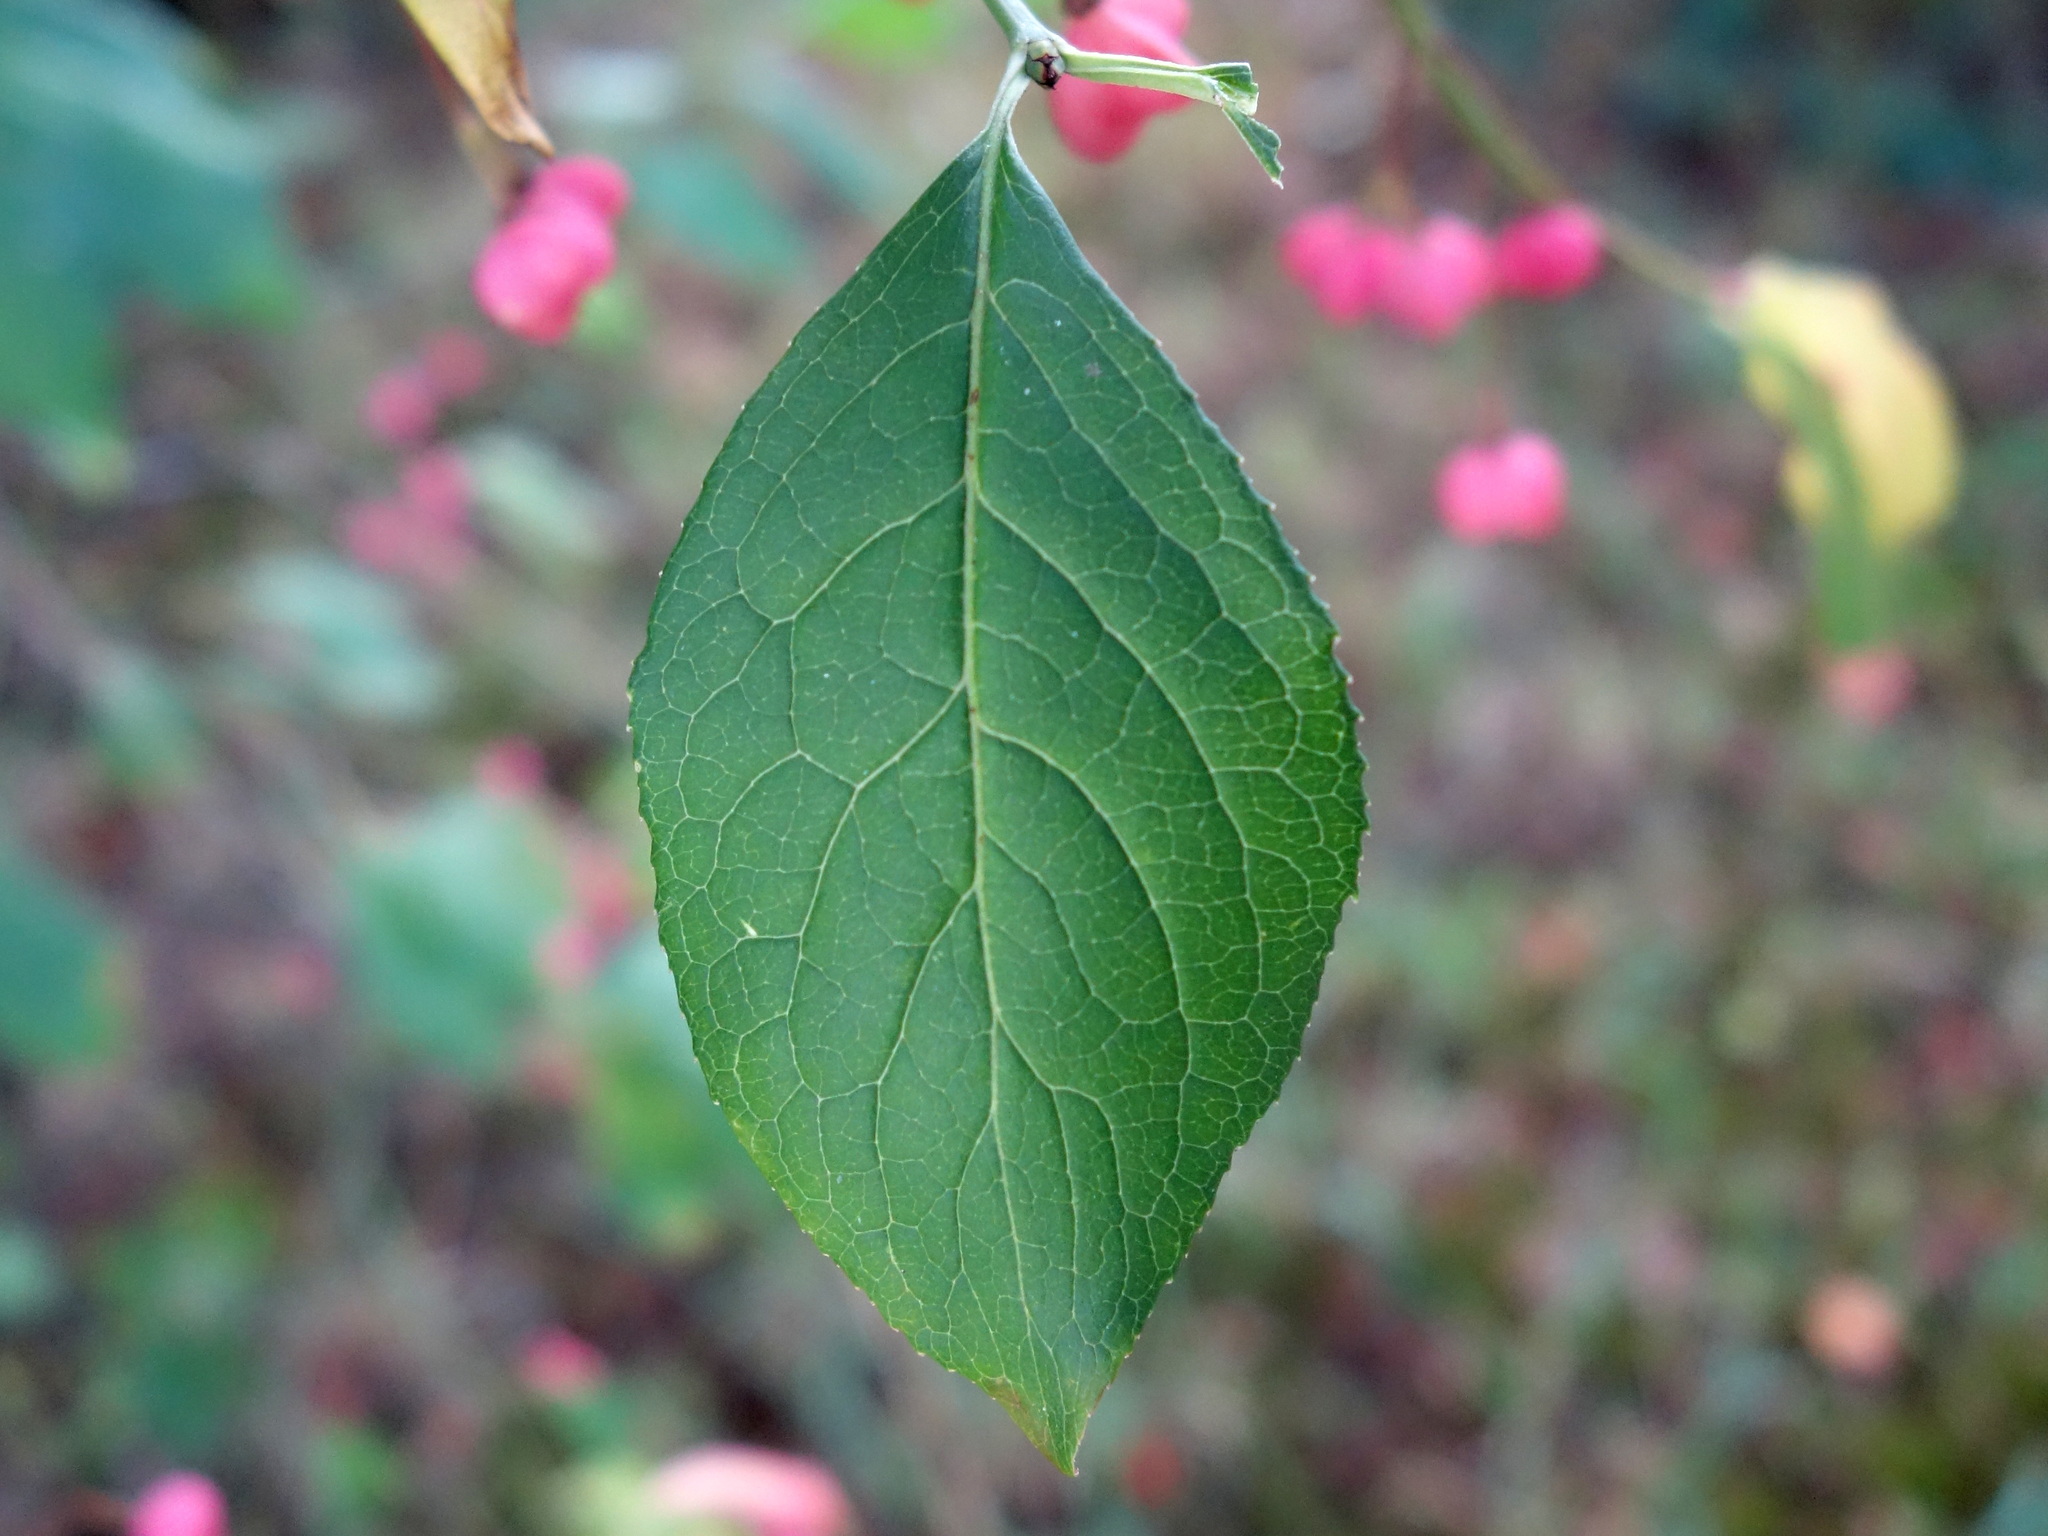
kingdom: Plantae
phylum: Tracheophyta
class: Magnoliopsida
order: Celastrales
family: Celastraceae
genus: Euonymus
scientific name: Euonymus europaeus
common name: Spindle
